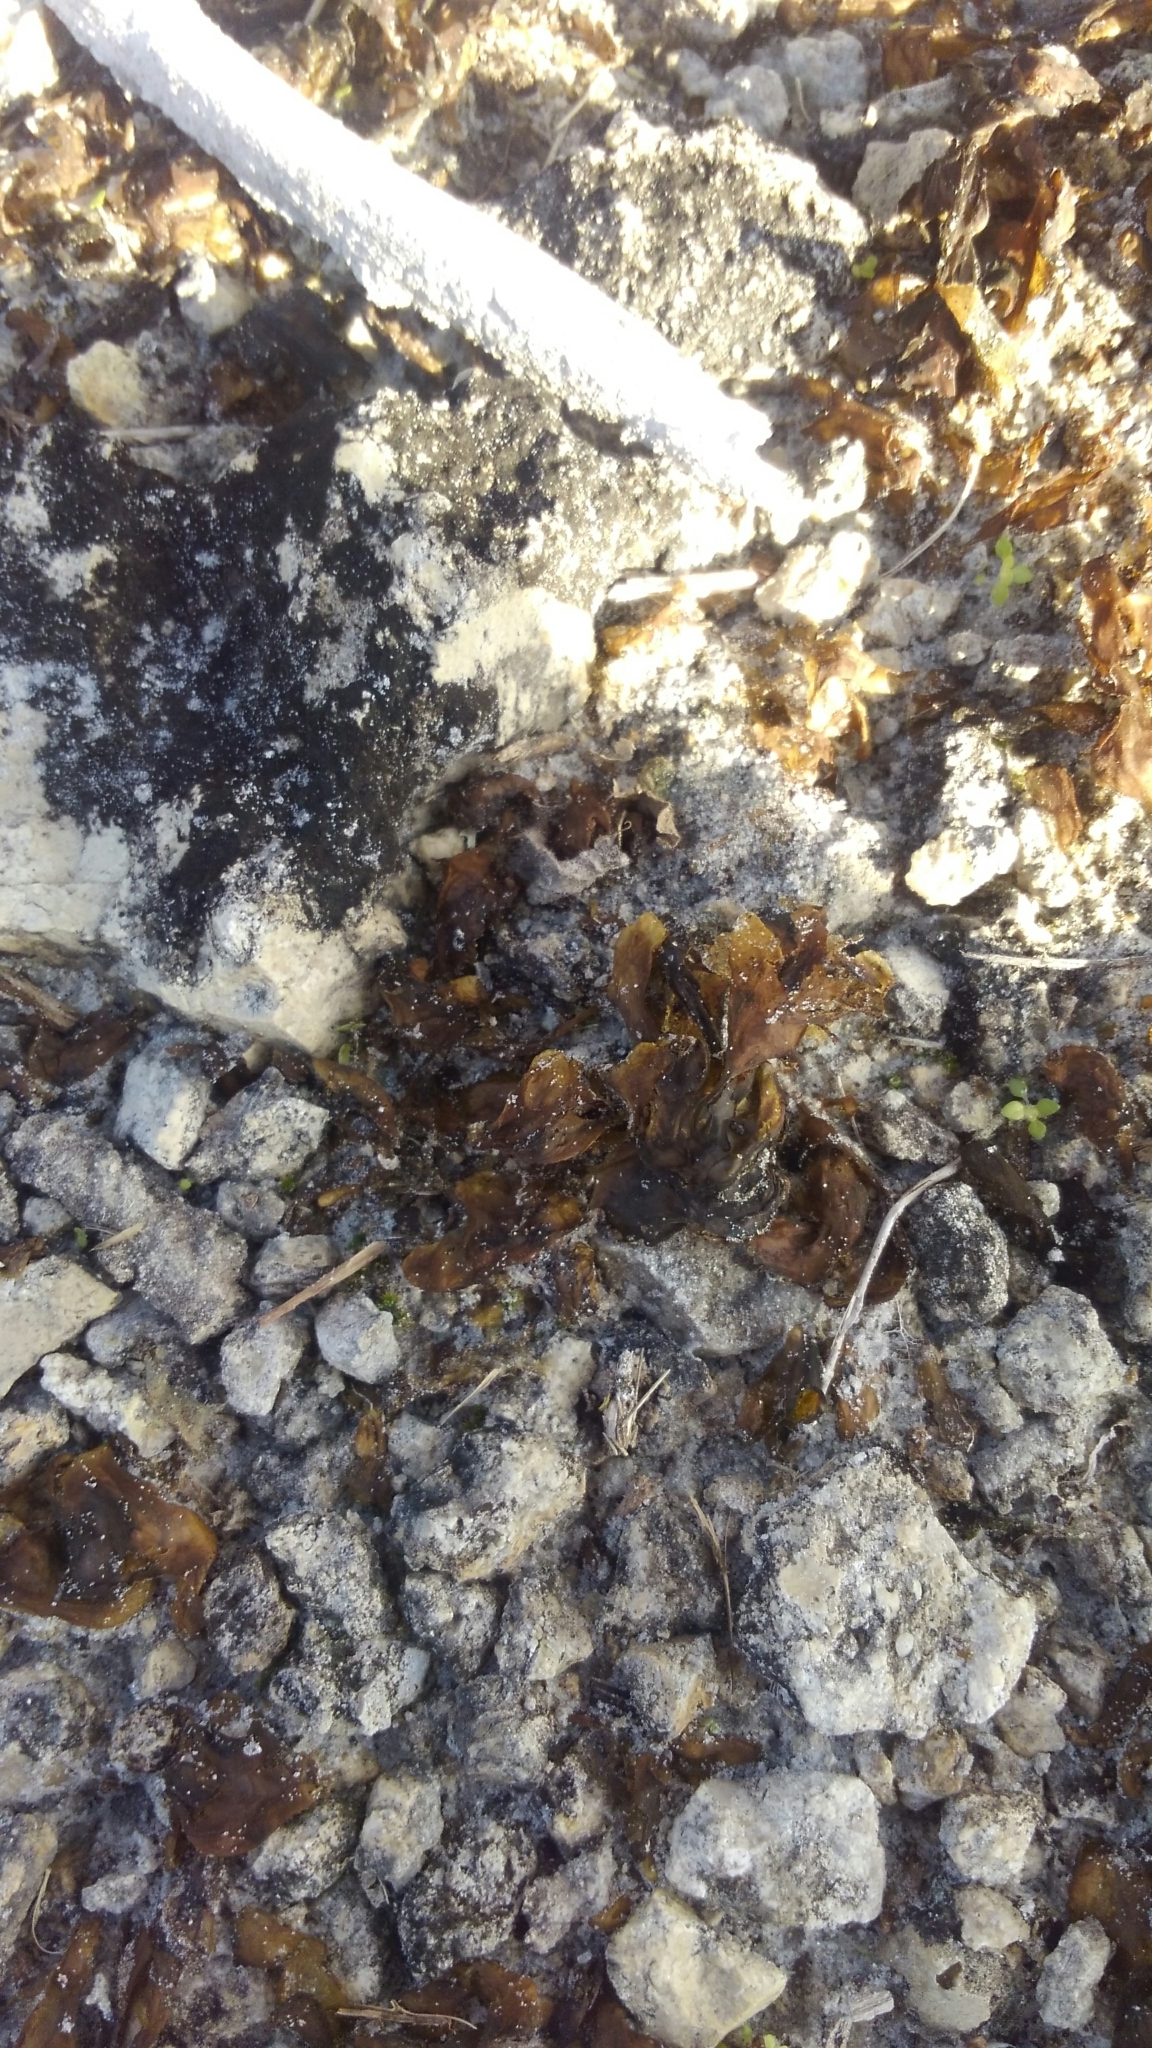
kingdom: Bacteria
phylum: Cyanobacteria
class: Cyanobacteriia
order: Cyanobacteriales
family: Nostocaceae
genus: Nostoc
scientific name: Nostoc commune
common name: Star jelly
